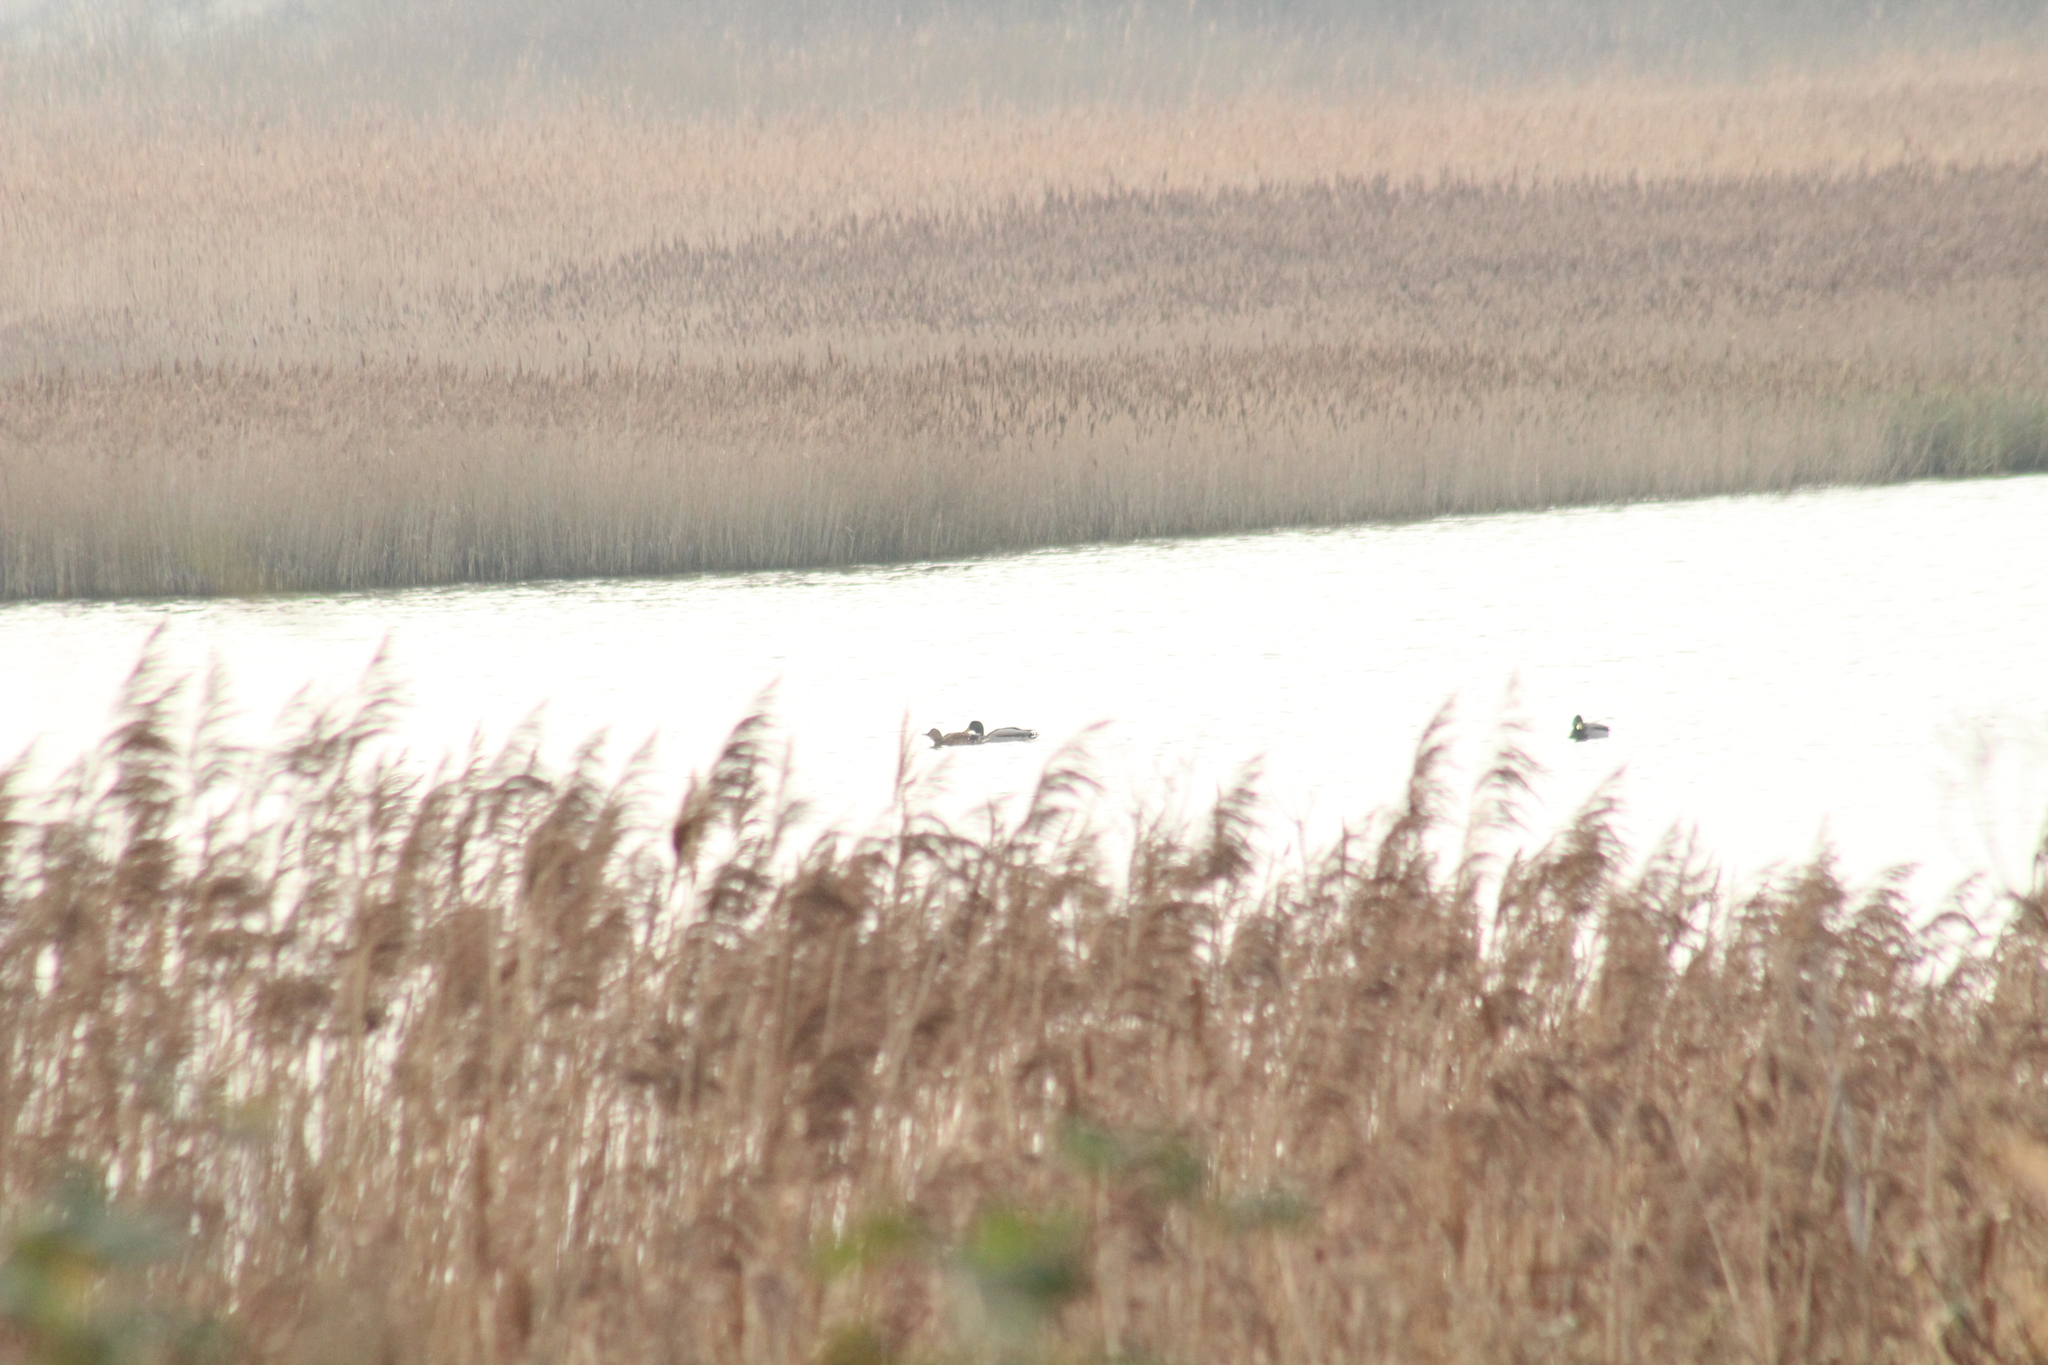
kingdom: Animalia
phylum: Chordata
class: Aves
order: Anseriformes
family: Anatidae
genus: Anas
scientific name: Anas platyrhynchos
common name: Mallard
